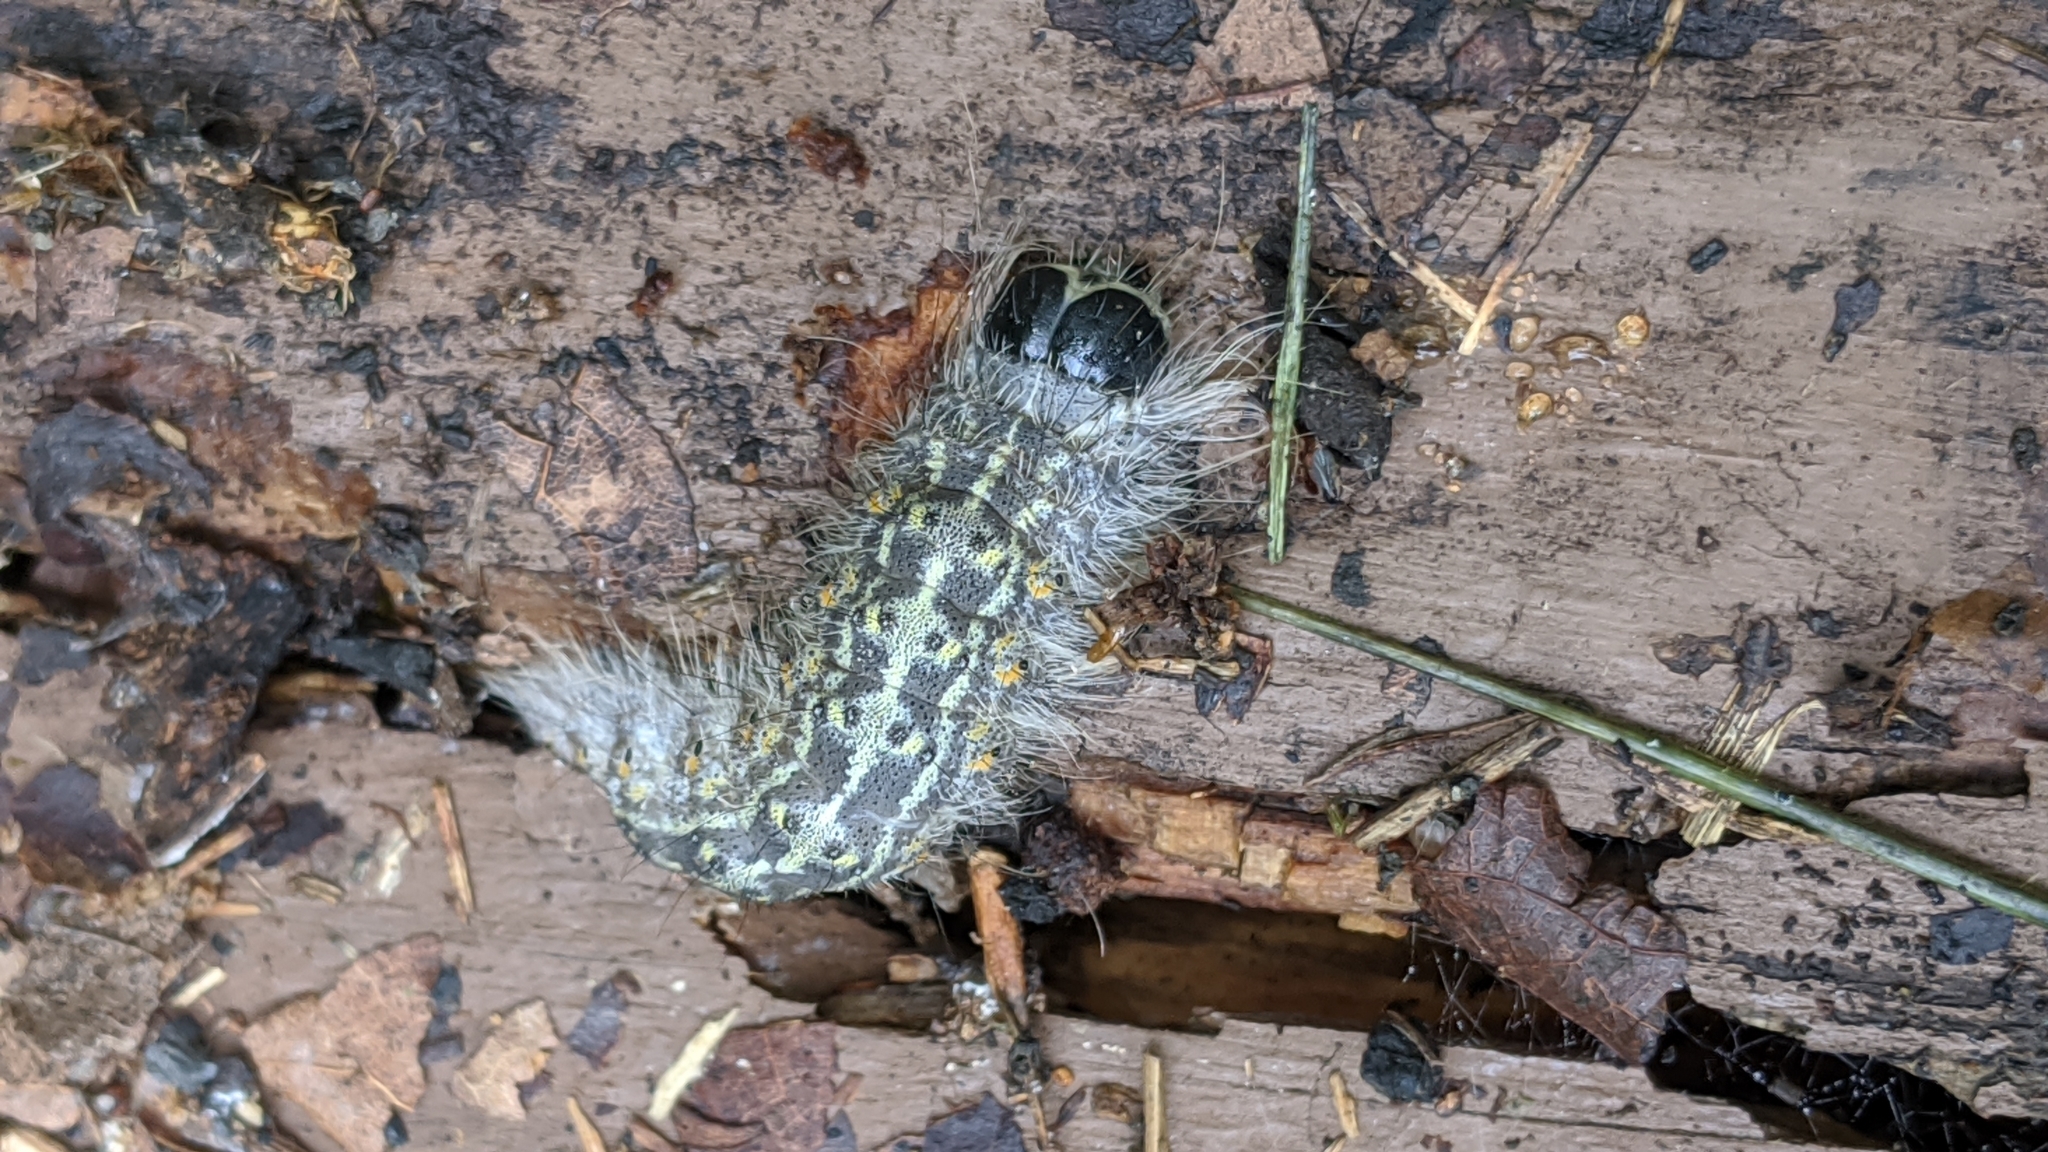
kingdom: Animalia
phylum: Arthropoda
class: Insecta
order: Lepidoptera
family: Noctuidae
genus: Acronicta
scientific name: Acronicta lobeliae
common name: Greater oak dagger
